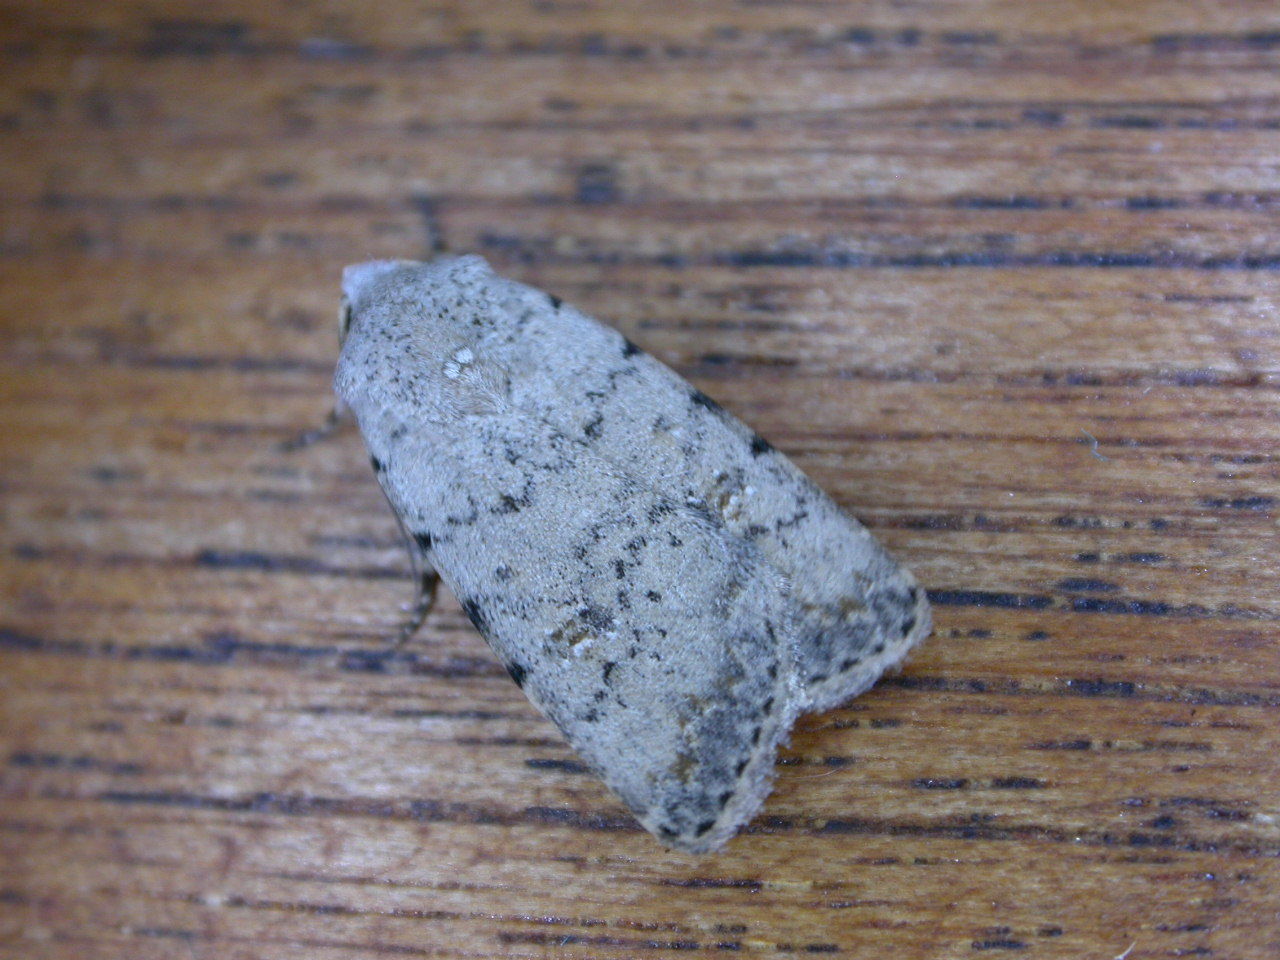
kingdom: Animalia
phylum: Arthropoda
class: Insecta
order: Lepidoptera
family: Noctuidae
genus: Caradrina
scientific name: Caradrina clavipalpis
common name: Pale mottled willow
